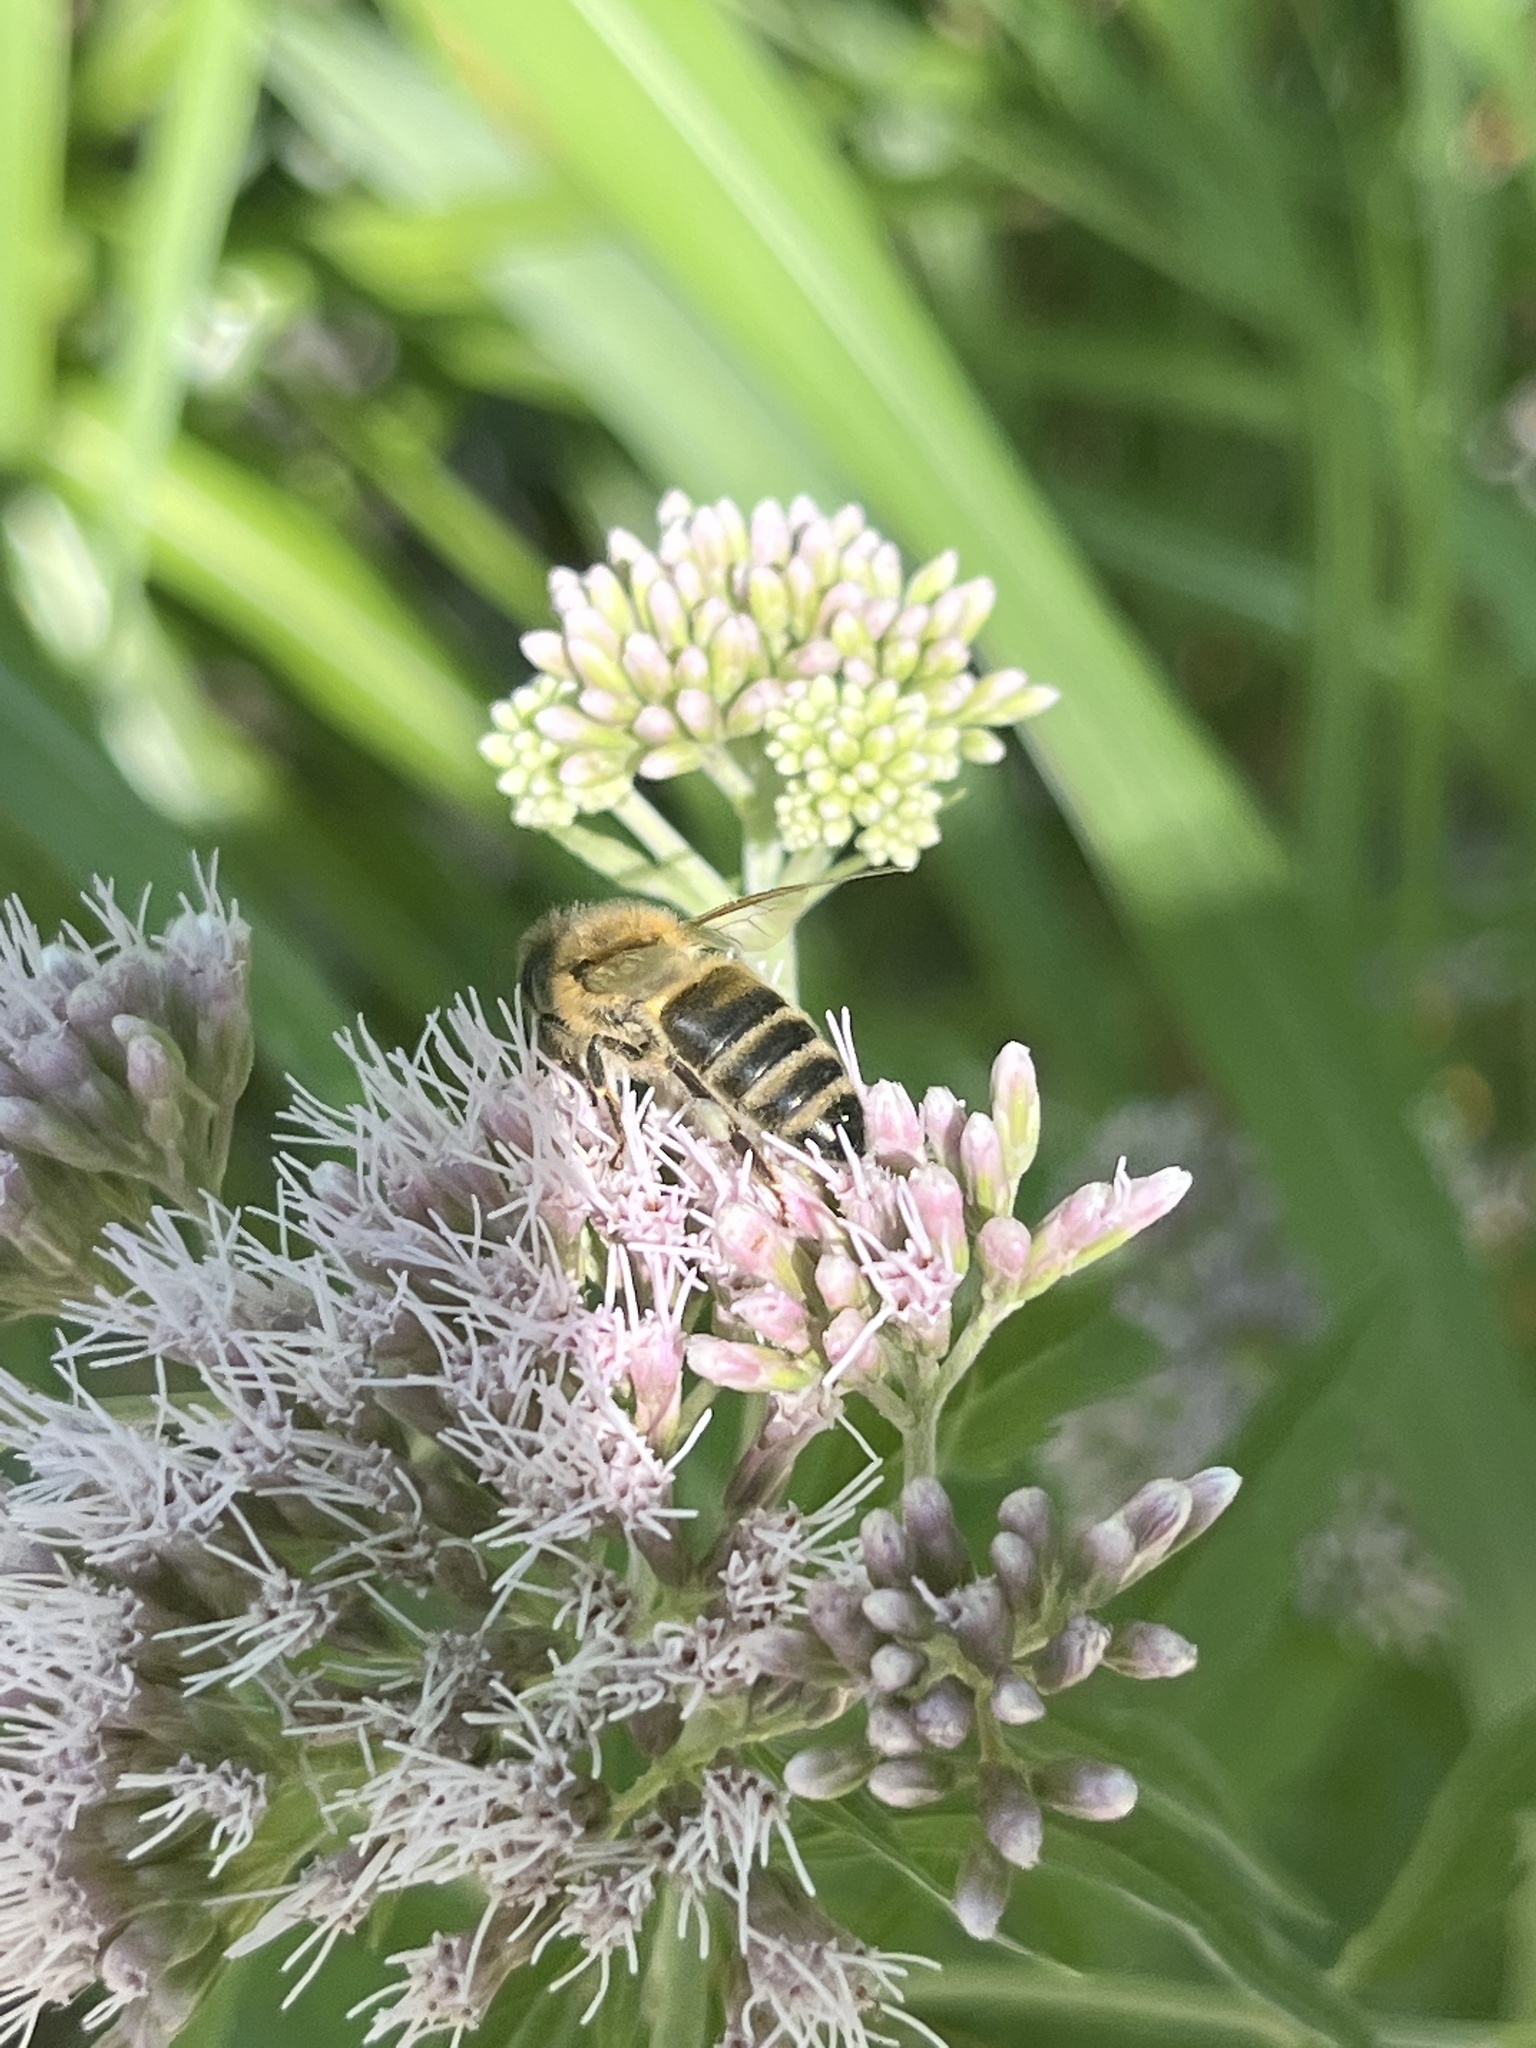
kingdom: Animalia
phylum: Arthropoda
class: Insecta
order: Hymenoptera
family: Apidae
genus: Apis
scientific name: Apis mellifera
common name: Honey bee
